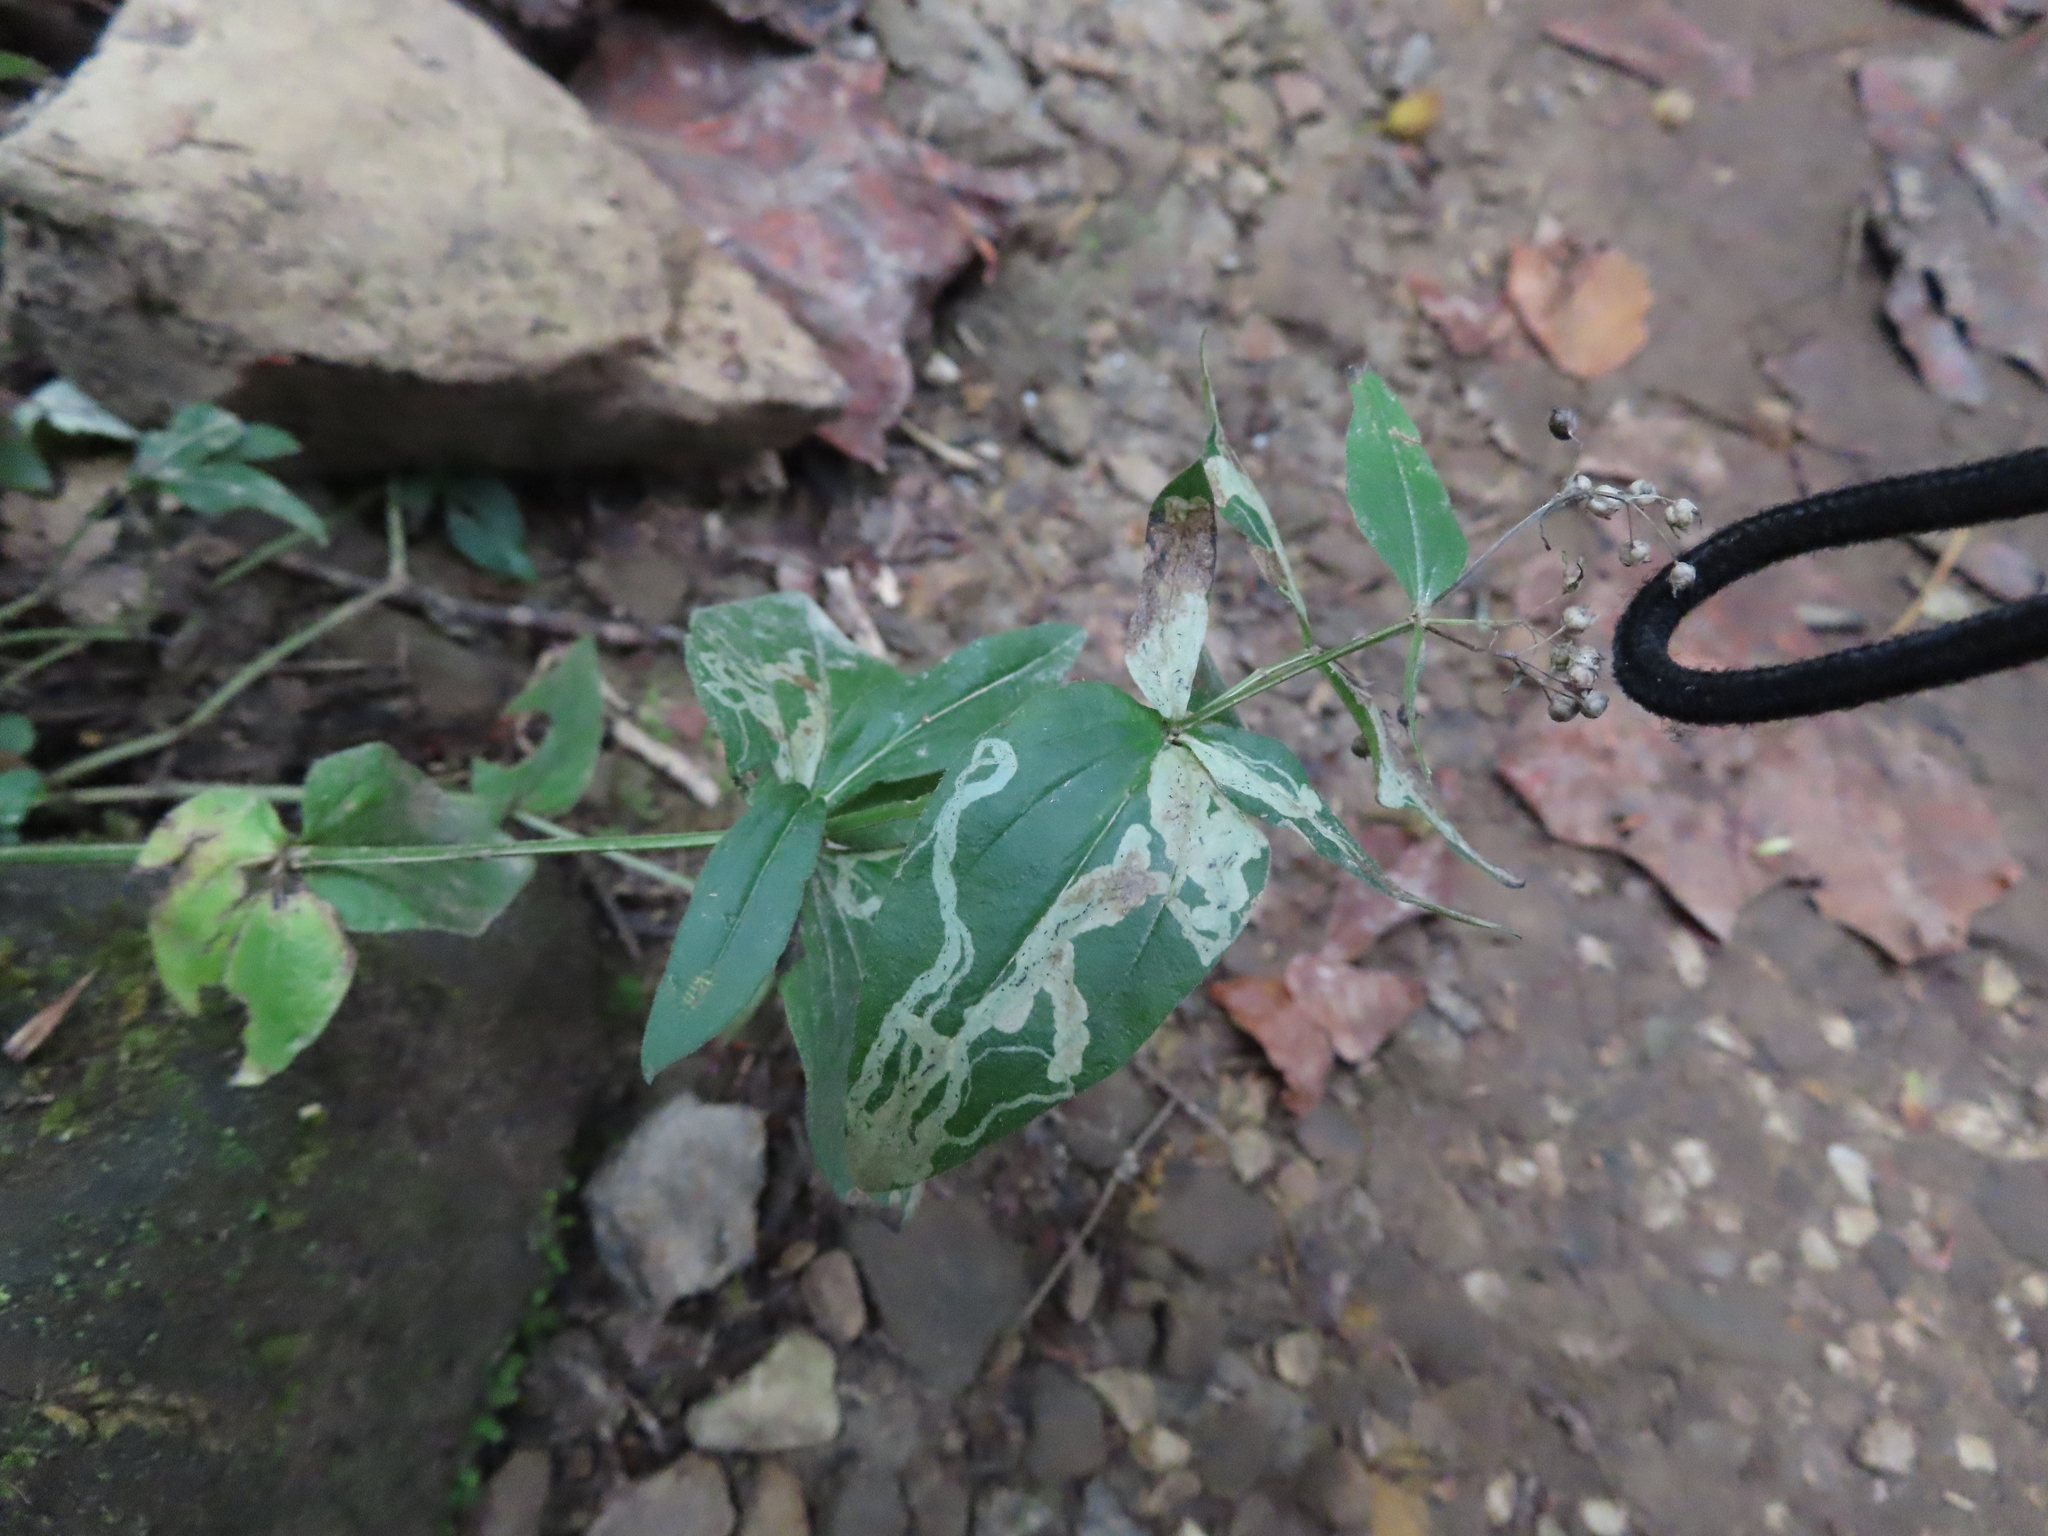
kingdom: Plantae
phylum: Tracheophyta
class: Magnoliopsida
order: Gentianales
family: Rubiaceae
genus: Houstonia
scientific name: Houstonia purpurea
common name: Summer bluet
